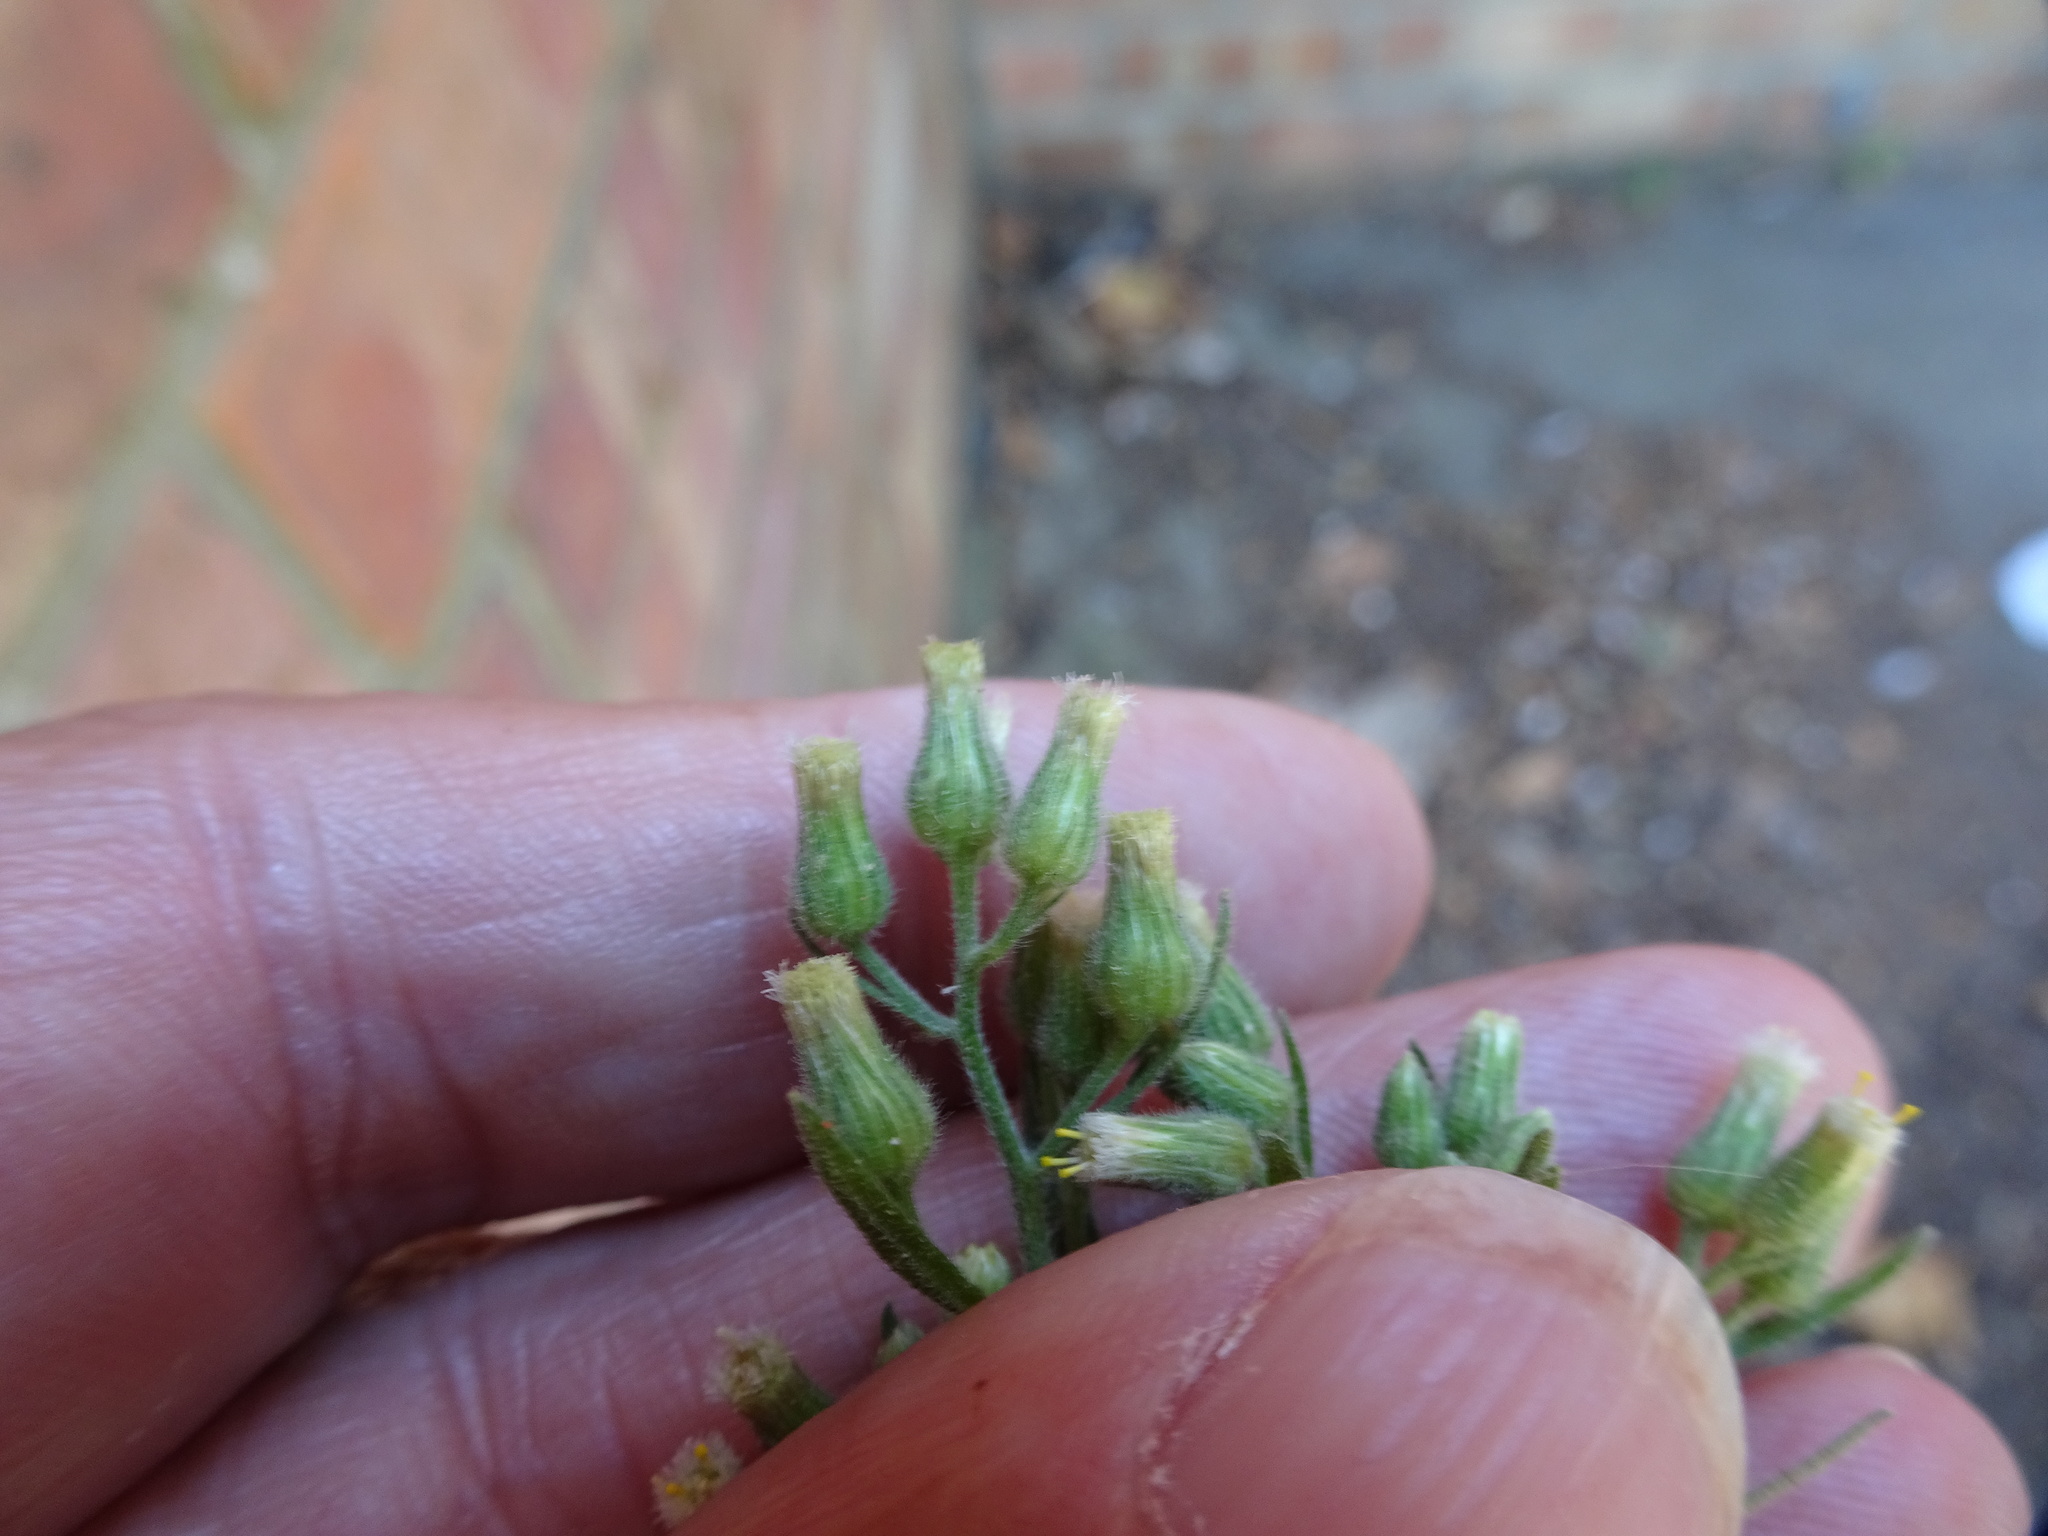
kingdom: Plantae
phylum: Tracheophyta
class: Magnoliopsida
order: Asterales
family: Asteraceae
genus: Erigeron
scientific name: Erigeron sumatrensis
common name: Daisy
